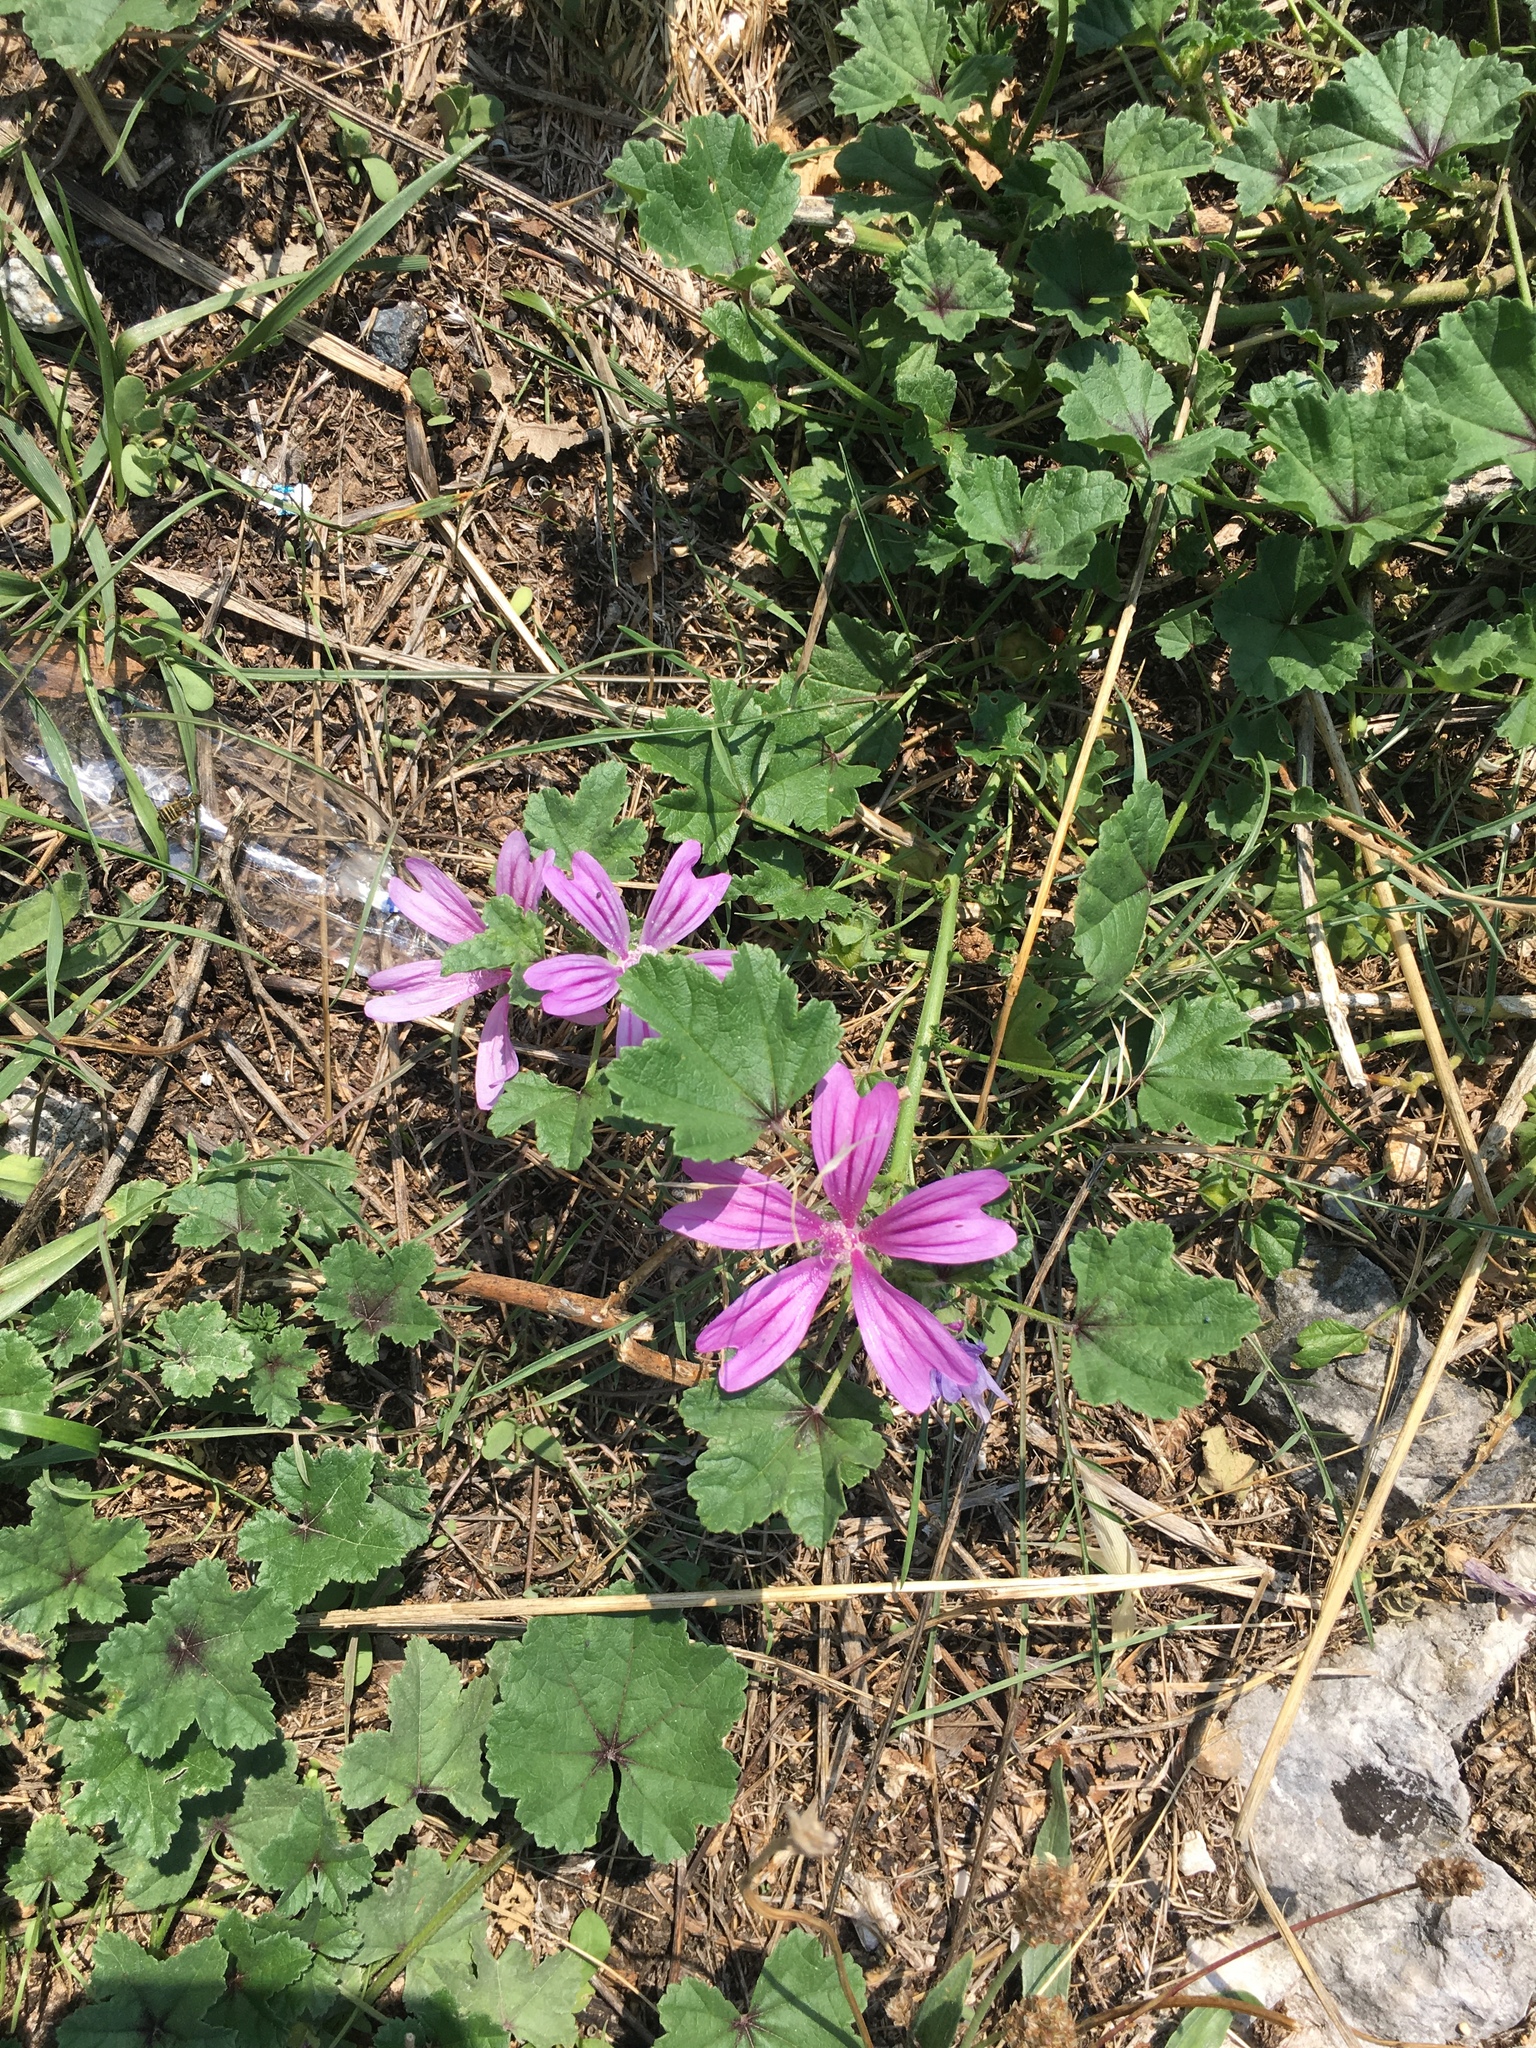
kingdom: Plantae
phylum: Tracheophyta
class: Magnoliopsida
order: Malvales
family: Malvaceae
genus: Malva
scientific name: Malva sylvestris
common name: Common mallow
